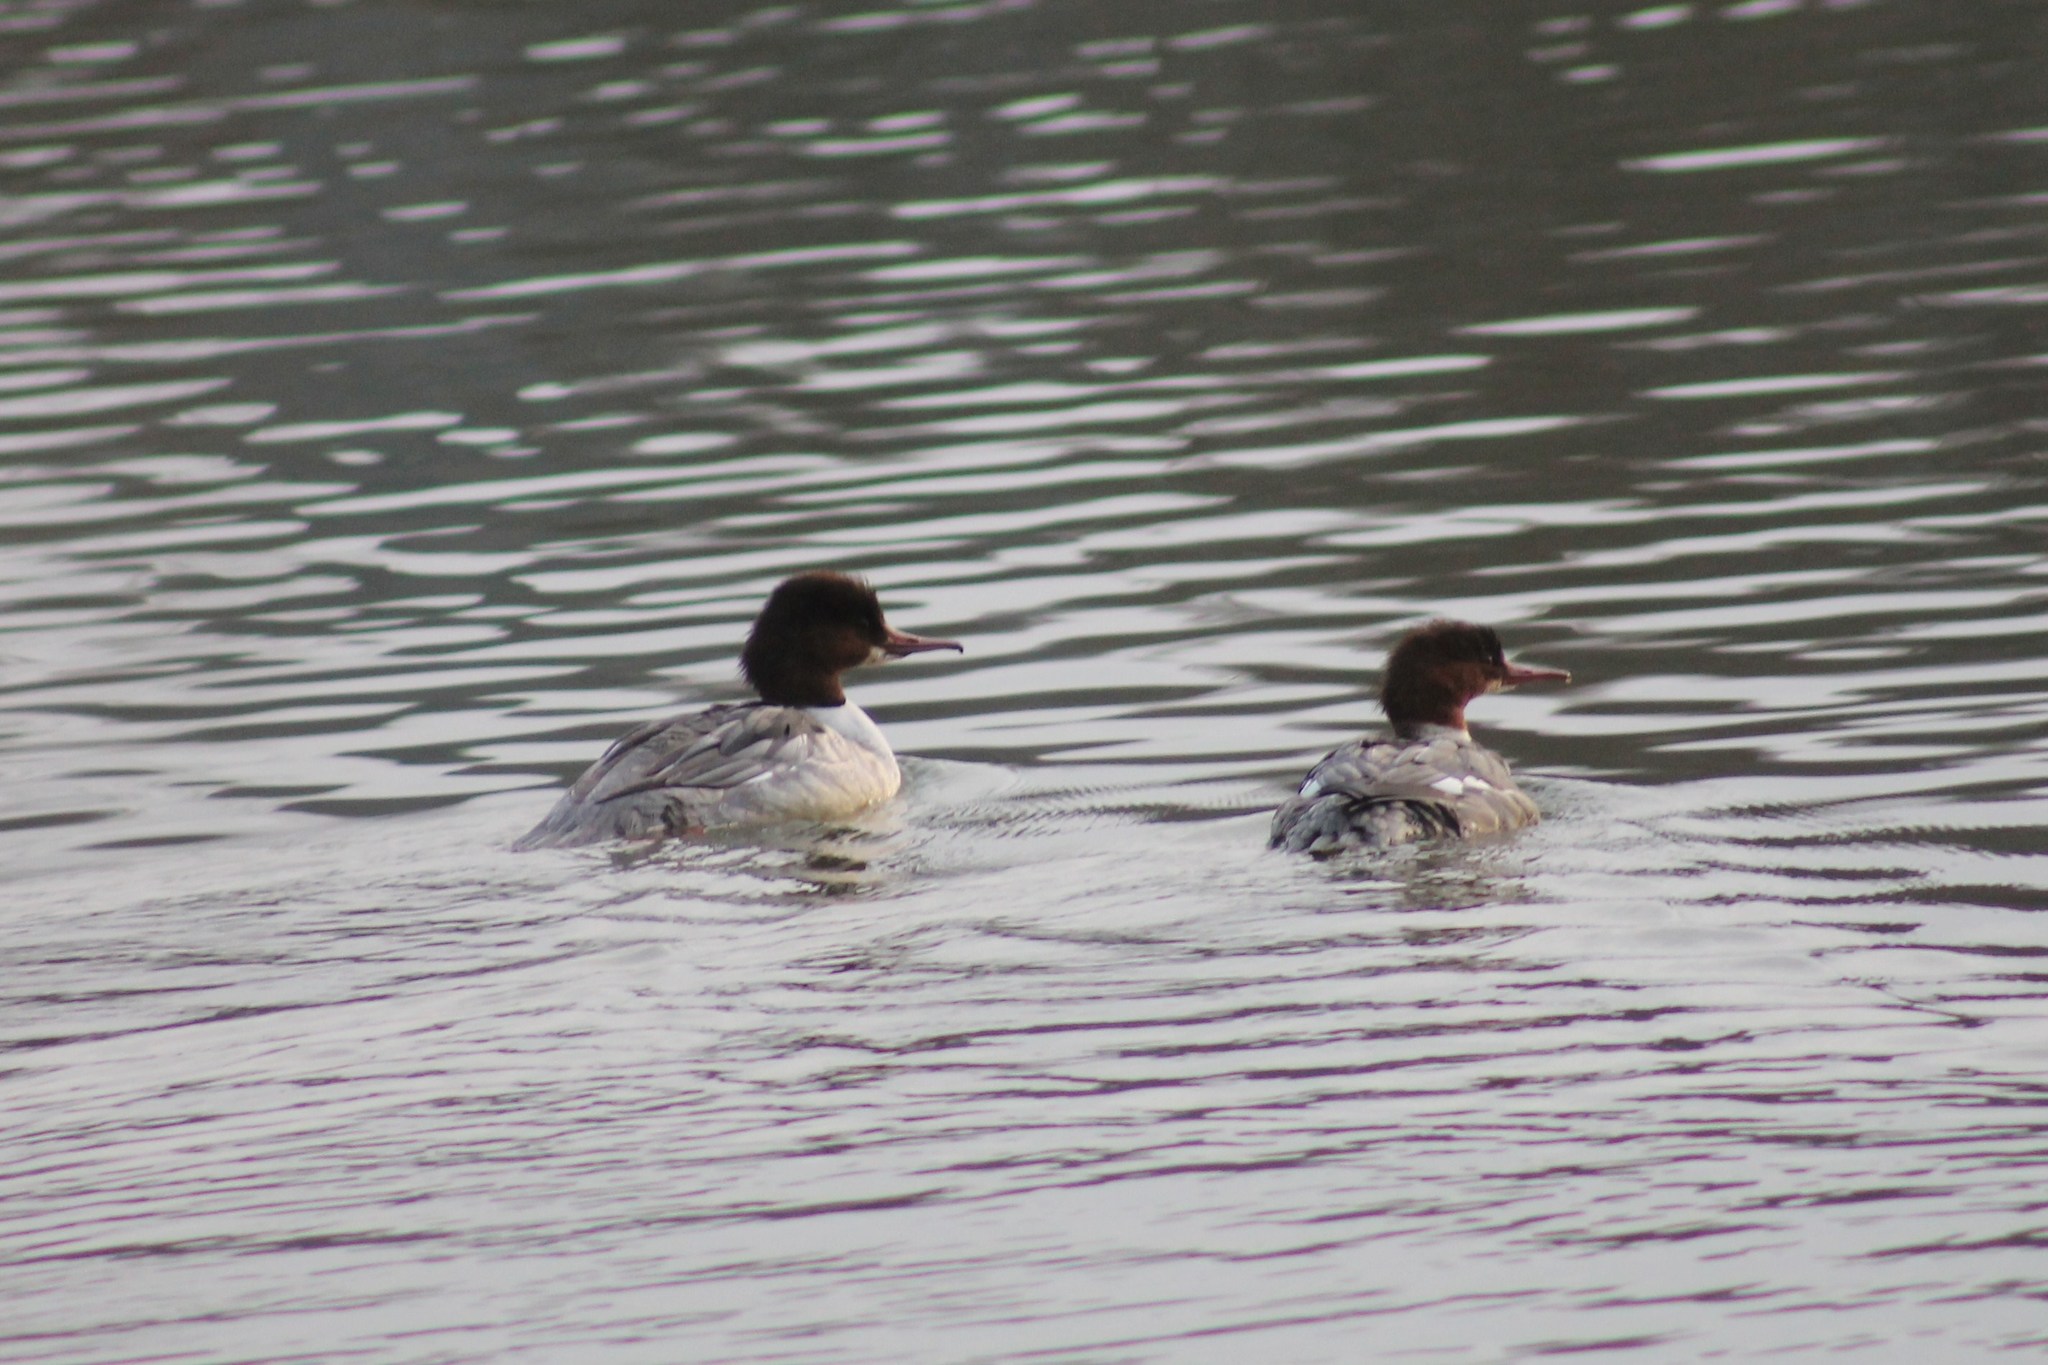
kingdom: Animalia
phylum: Chordata
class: Aves
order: Anseriformes
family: Anatidae
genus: Mergus
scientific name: Mergus merganser
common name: Common merganser
